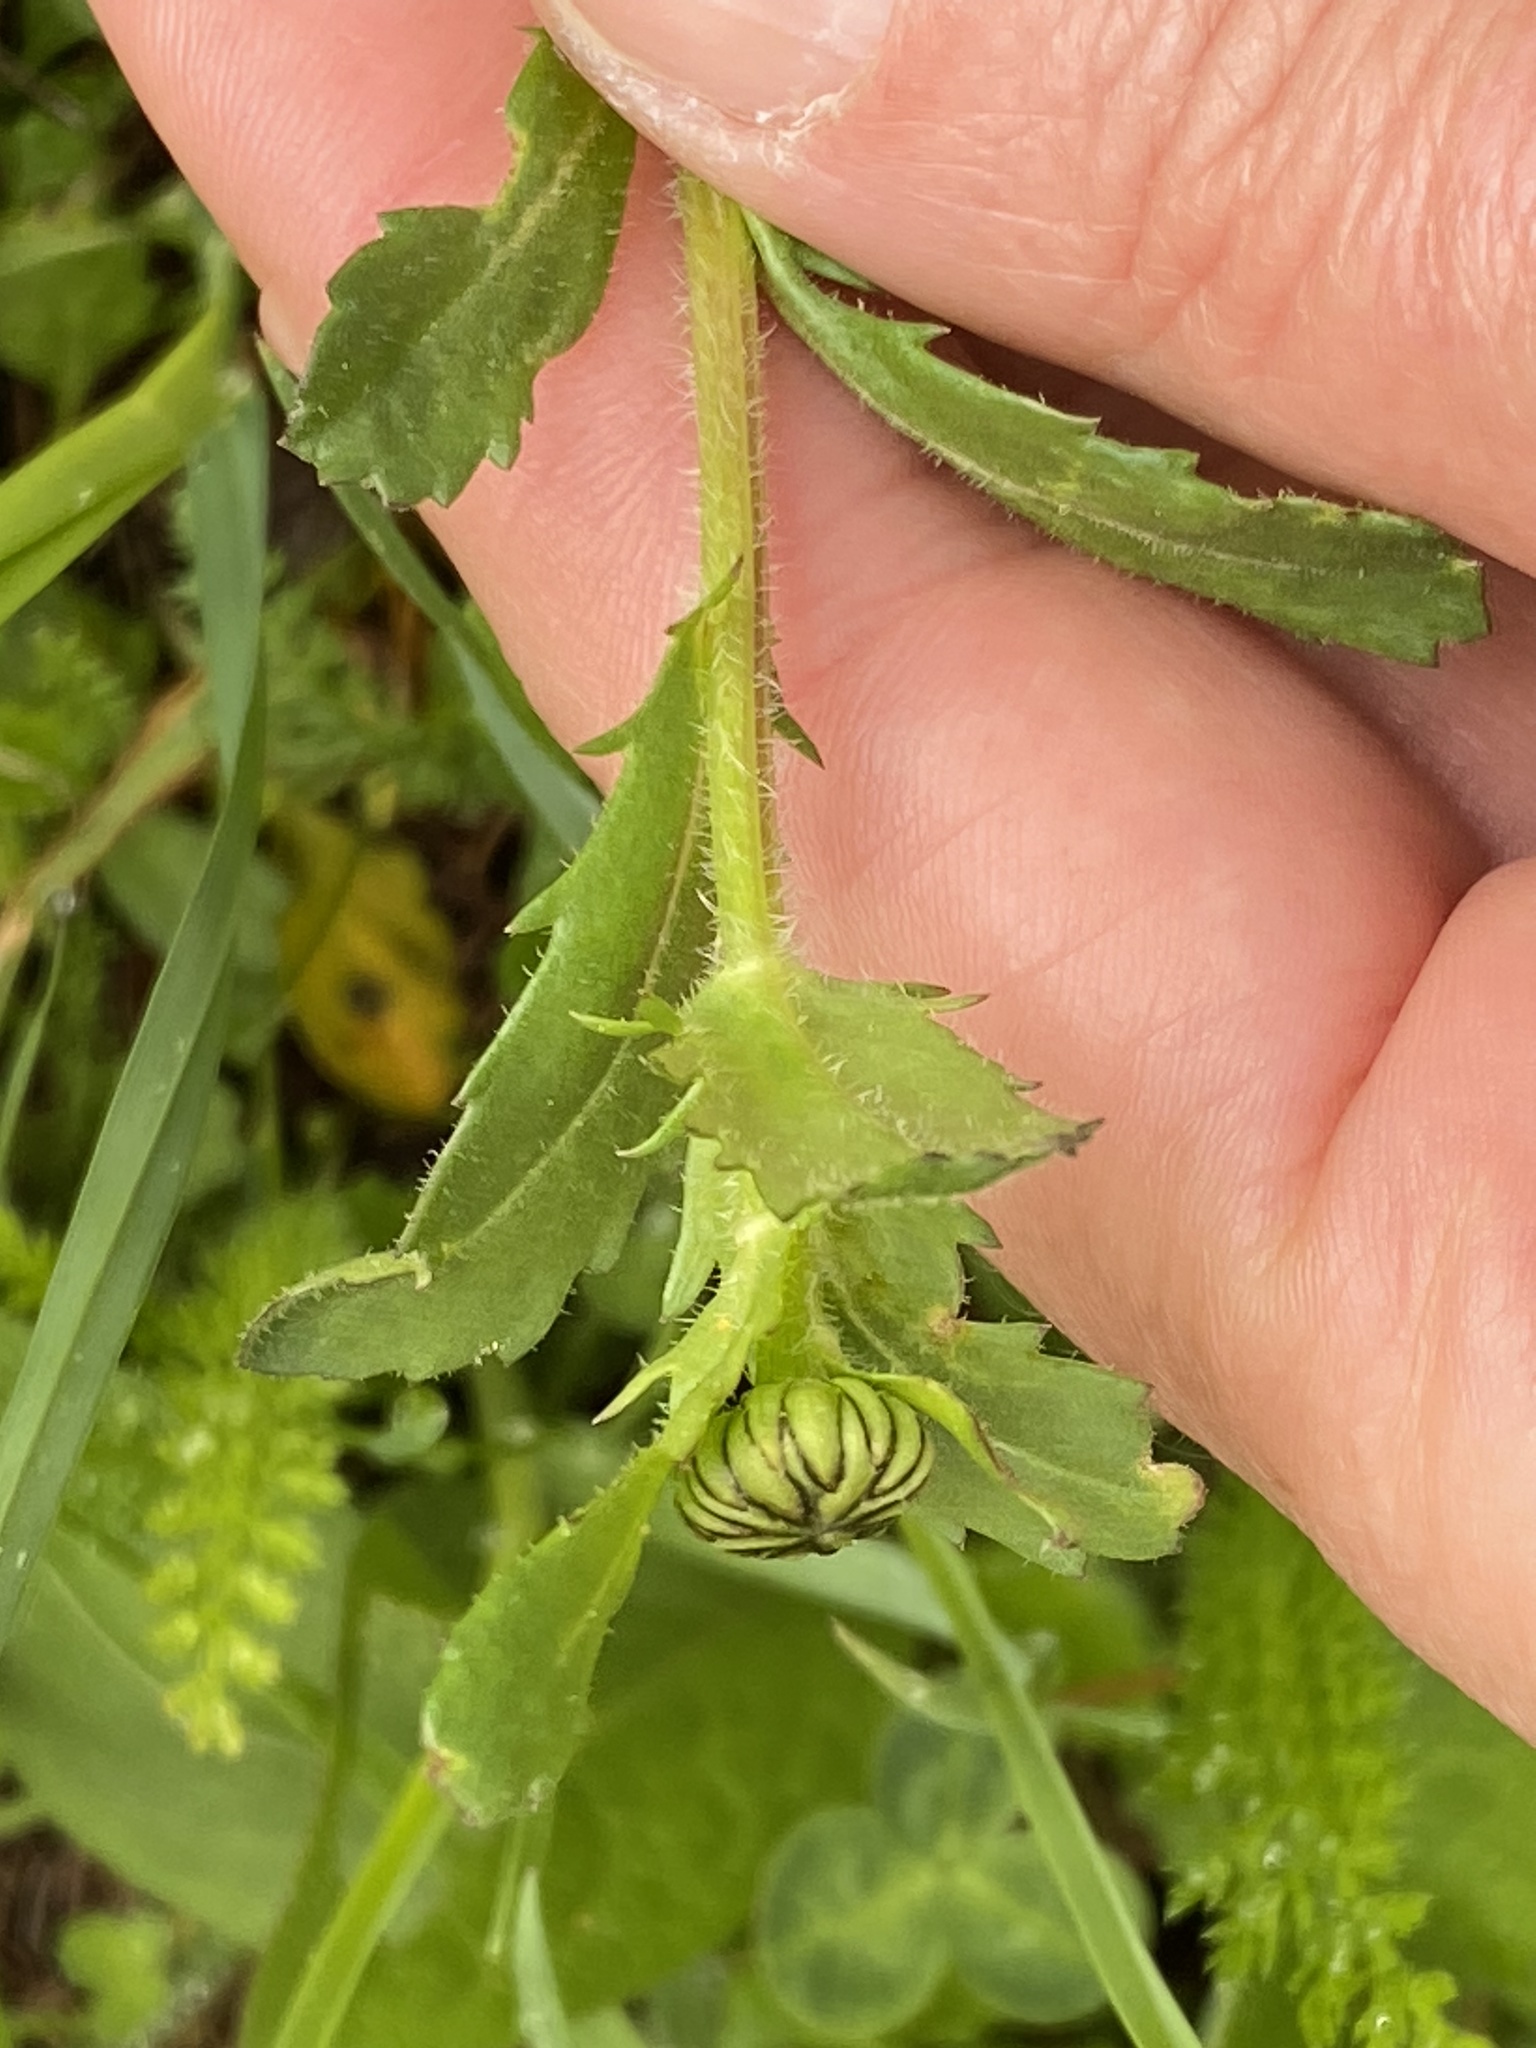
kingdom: Plantae
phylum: Tracheophyta
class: Magnoliopsida
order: Asterales
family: Asteraceae
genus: Leucanthemum
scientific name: Leucanthemum vulgare
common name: Oxeye daisy
